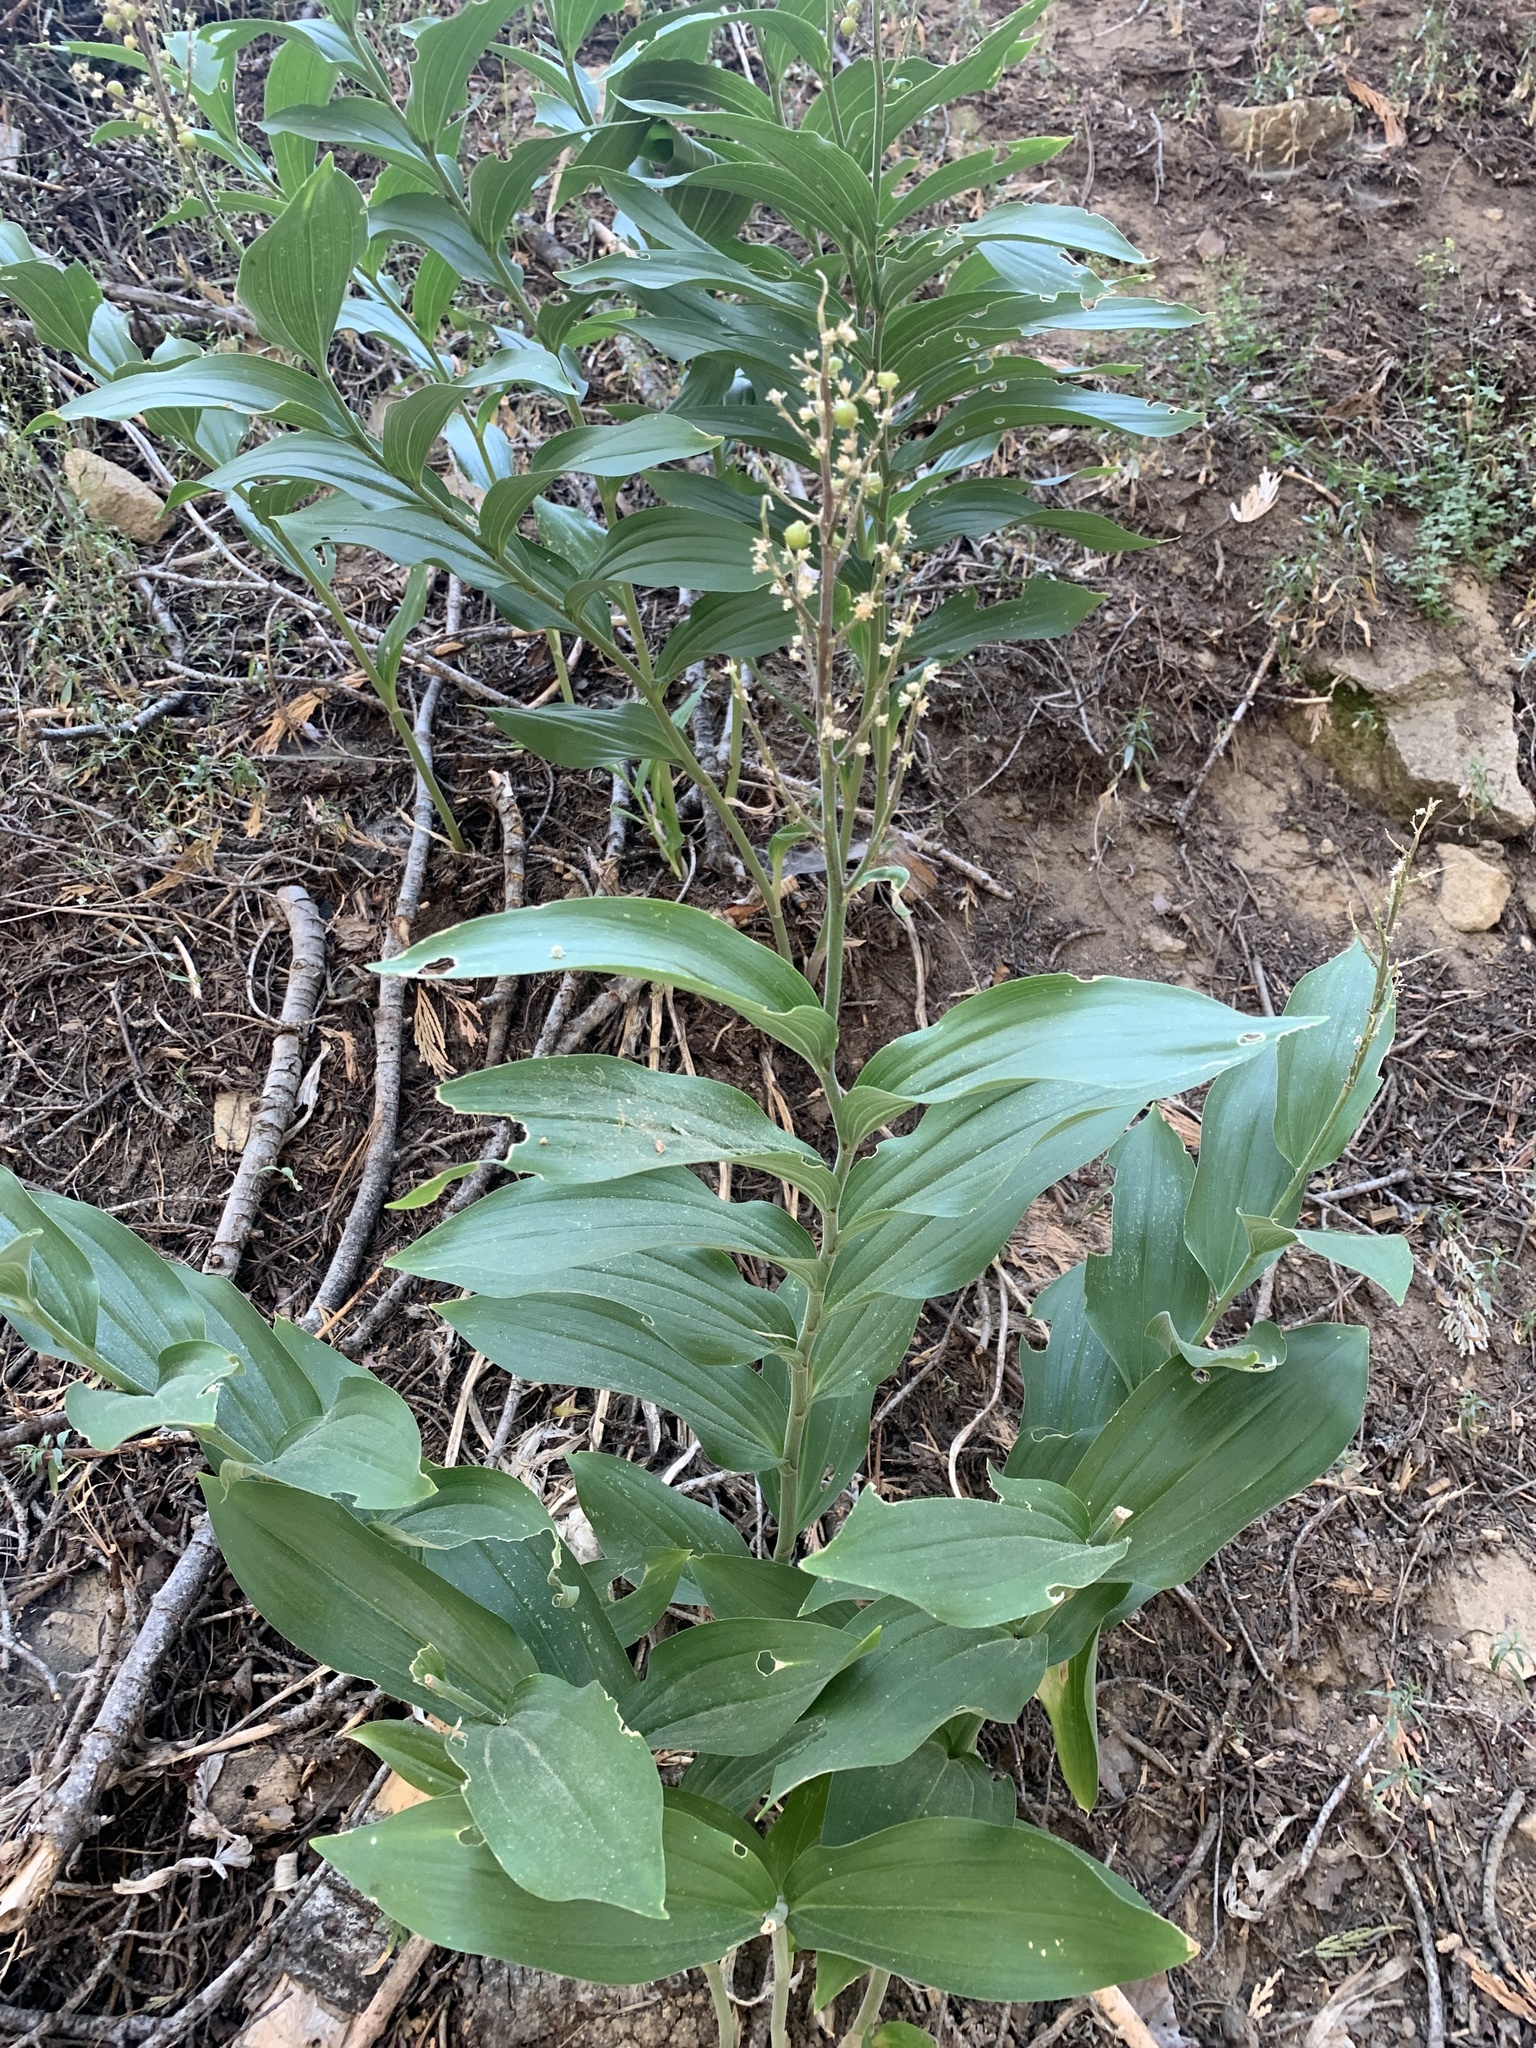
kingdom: Plantae
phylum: Tracheophyta
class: Liliopsida
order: Asparagales
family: Asparagaceae
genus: Maianthemum
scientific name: Maianthemum racemosum
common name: False spikenard
